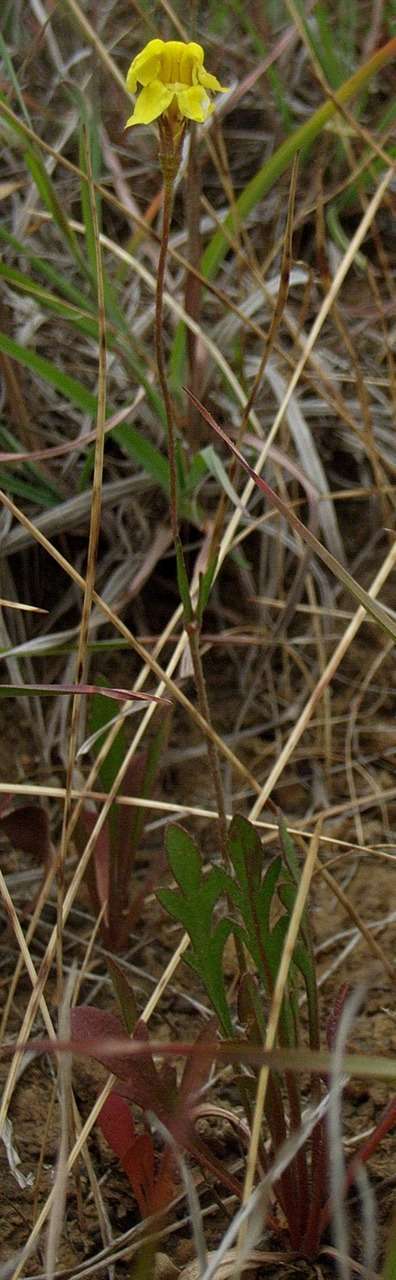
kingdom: Plantae
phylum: Tracheophyta
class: Magnoliopsida
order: Asterales
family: Goodeniaceae
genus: Goodenia
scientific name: Goodenia pinnatifida
